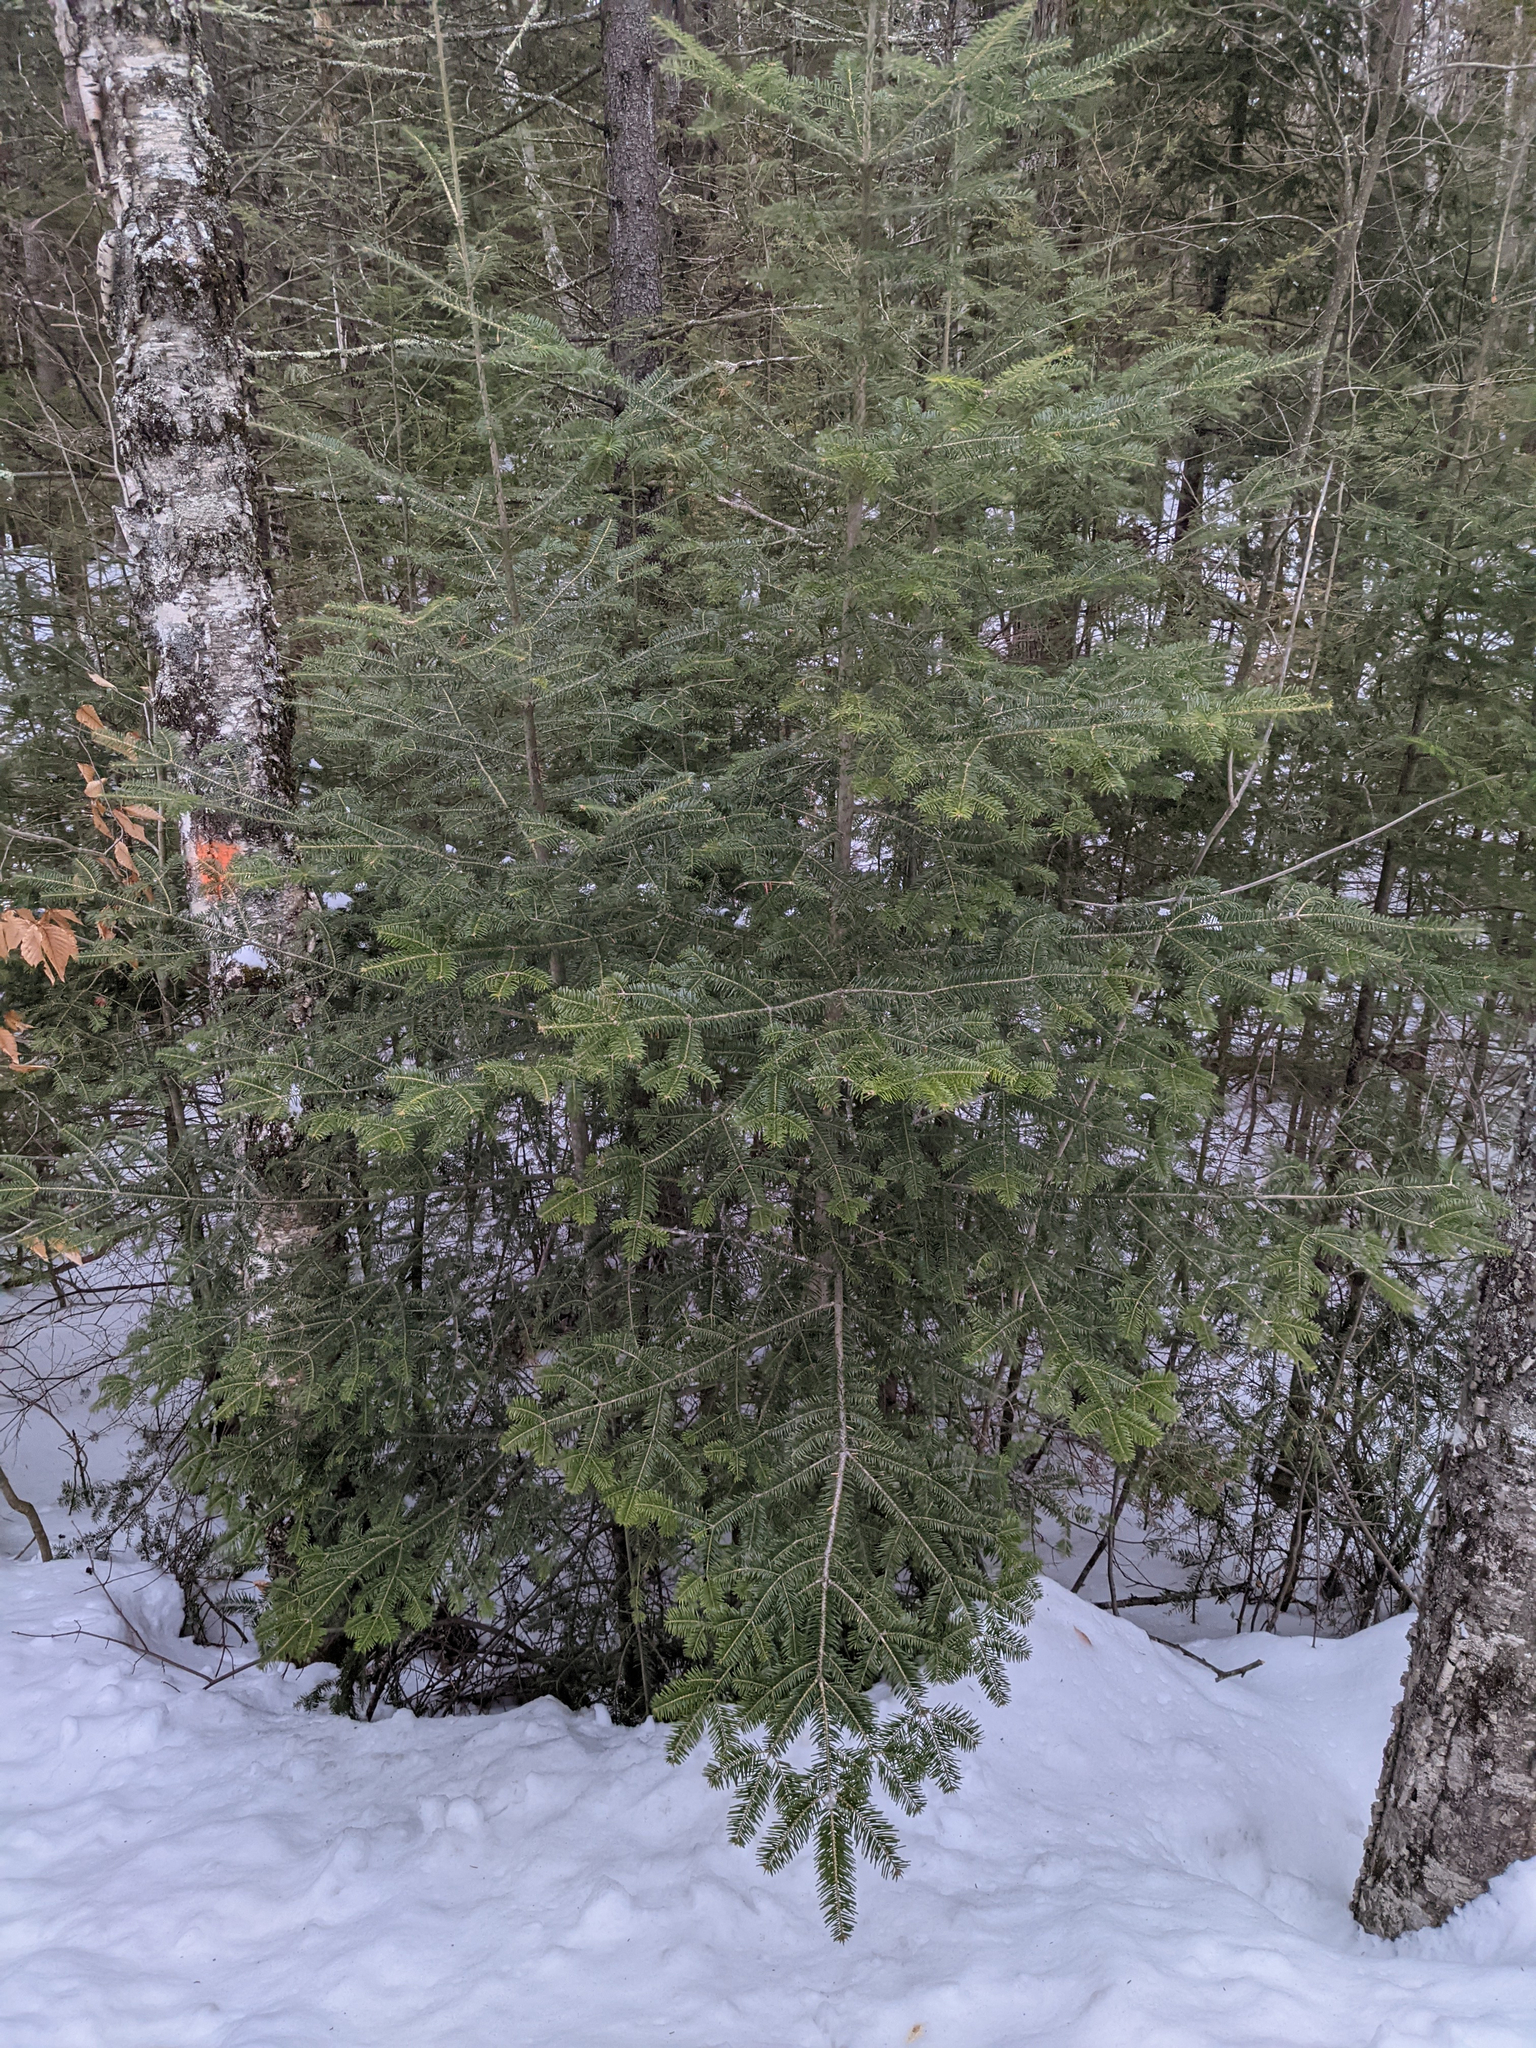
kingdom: Plantae
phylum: Tracheophyta
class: Pinopsida
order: Pinales
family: Pinaceae
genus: Abies
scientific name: Abies balsamea
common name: Balsam fir
